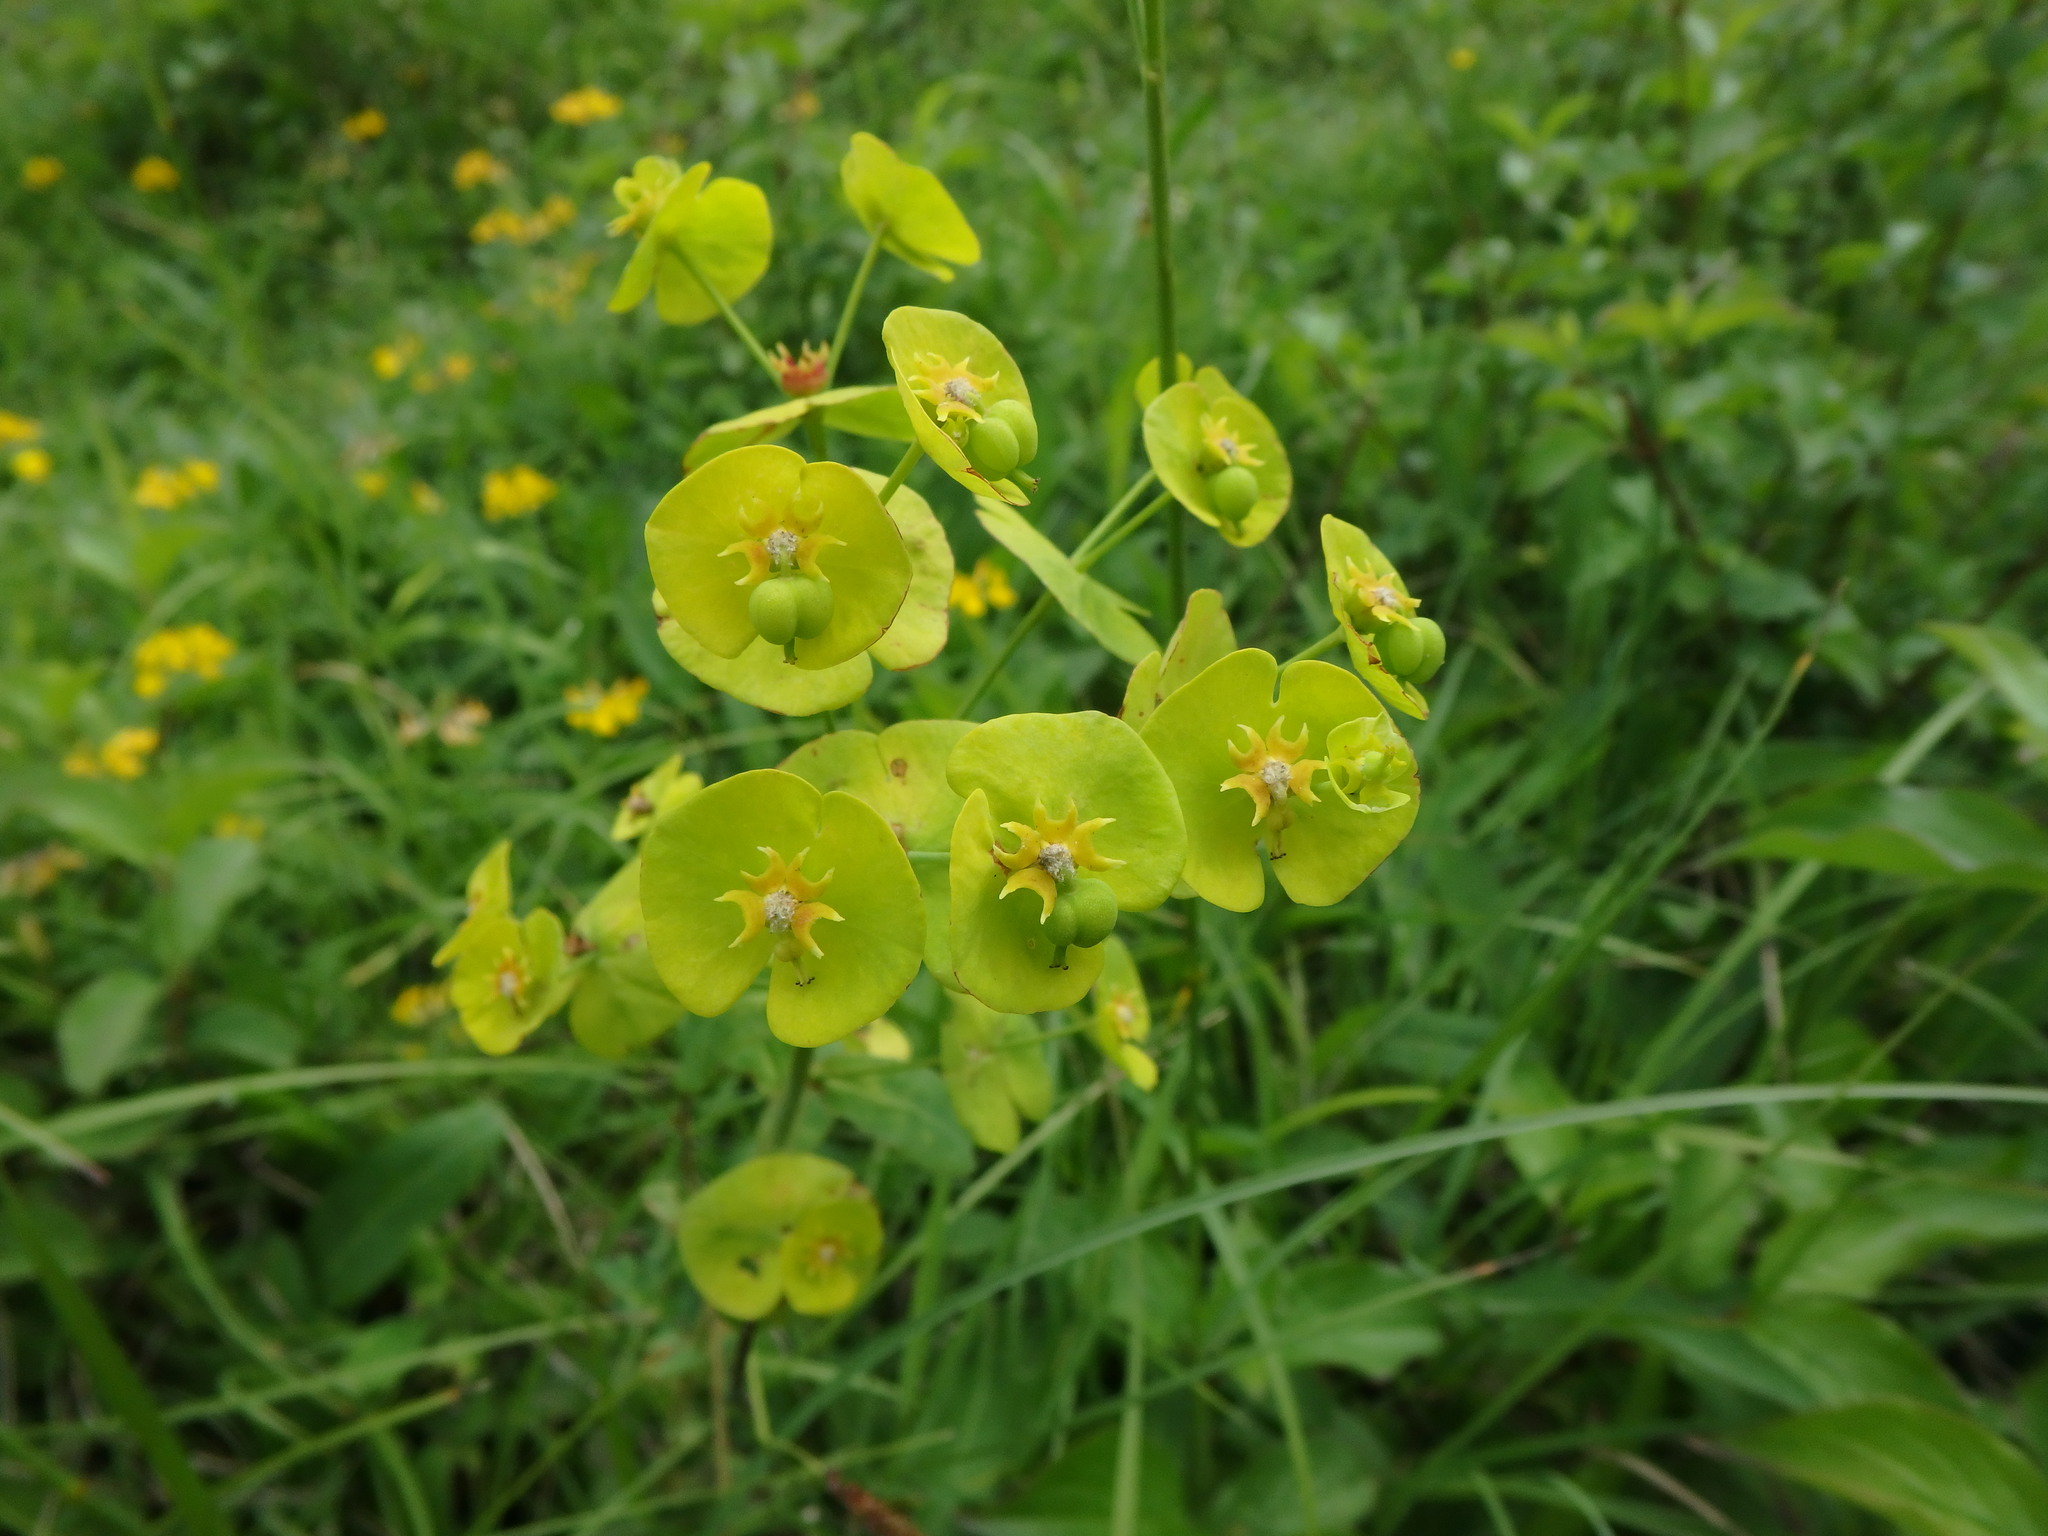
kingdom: Plantae
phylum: Tracheophyta
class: Magnoliopsida
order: Malpighiales
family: Euphorbiaceae
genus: Euphorbia
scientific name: Euphorbia amygdaloides
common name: Wood spurge
